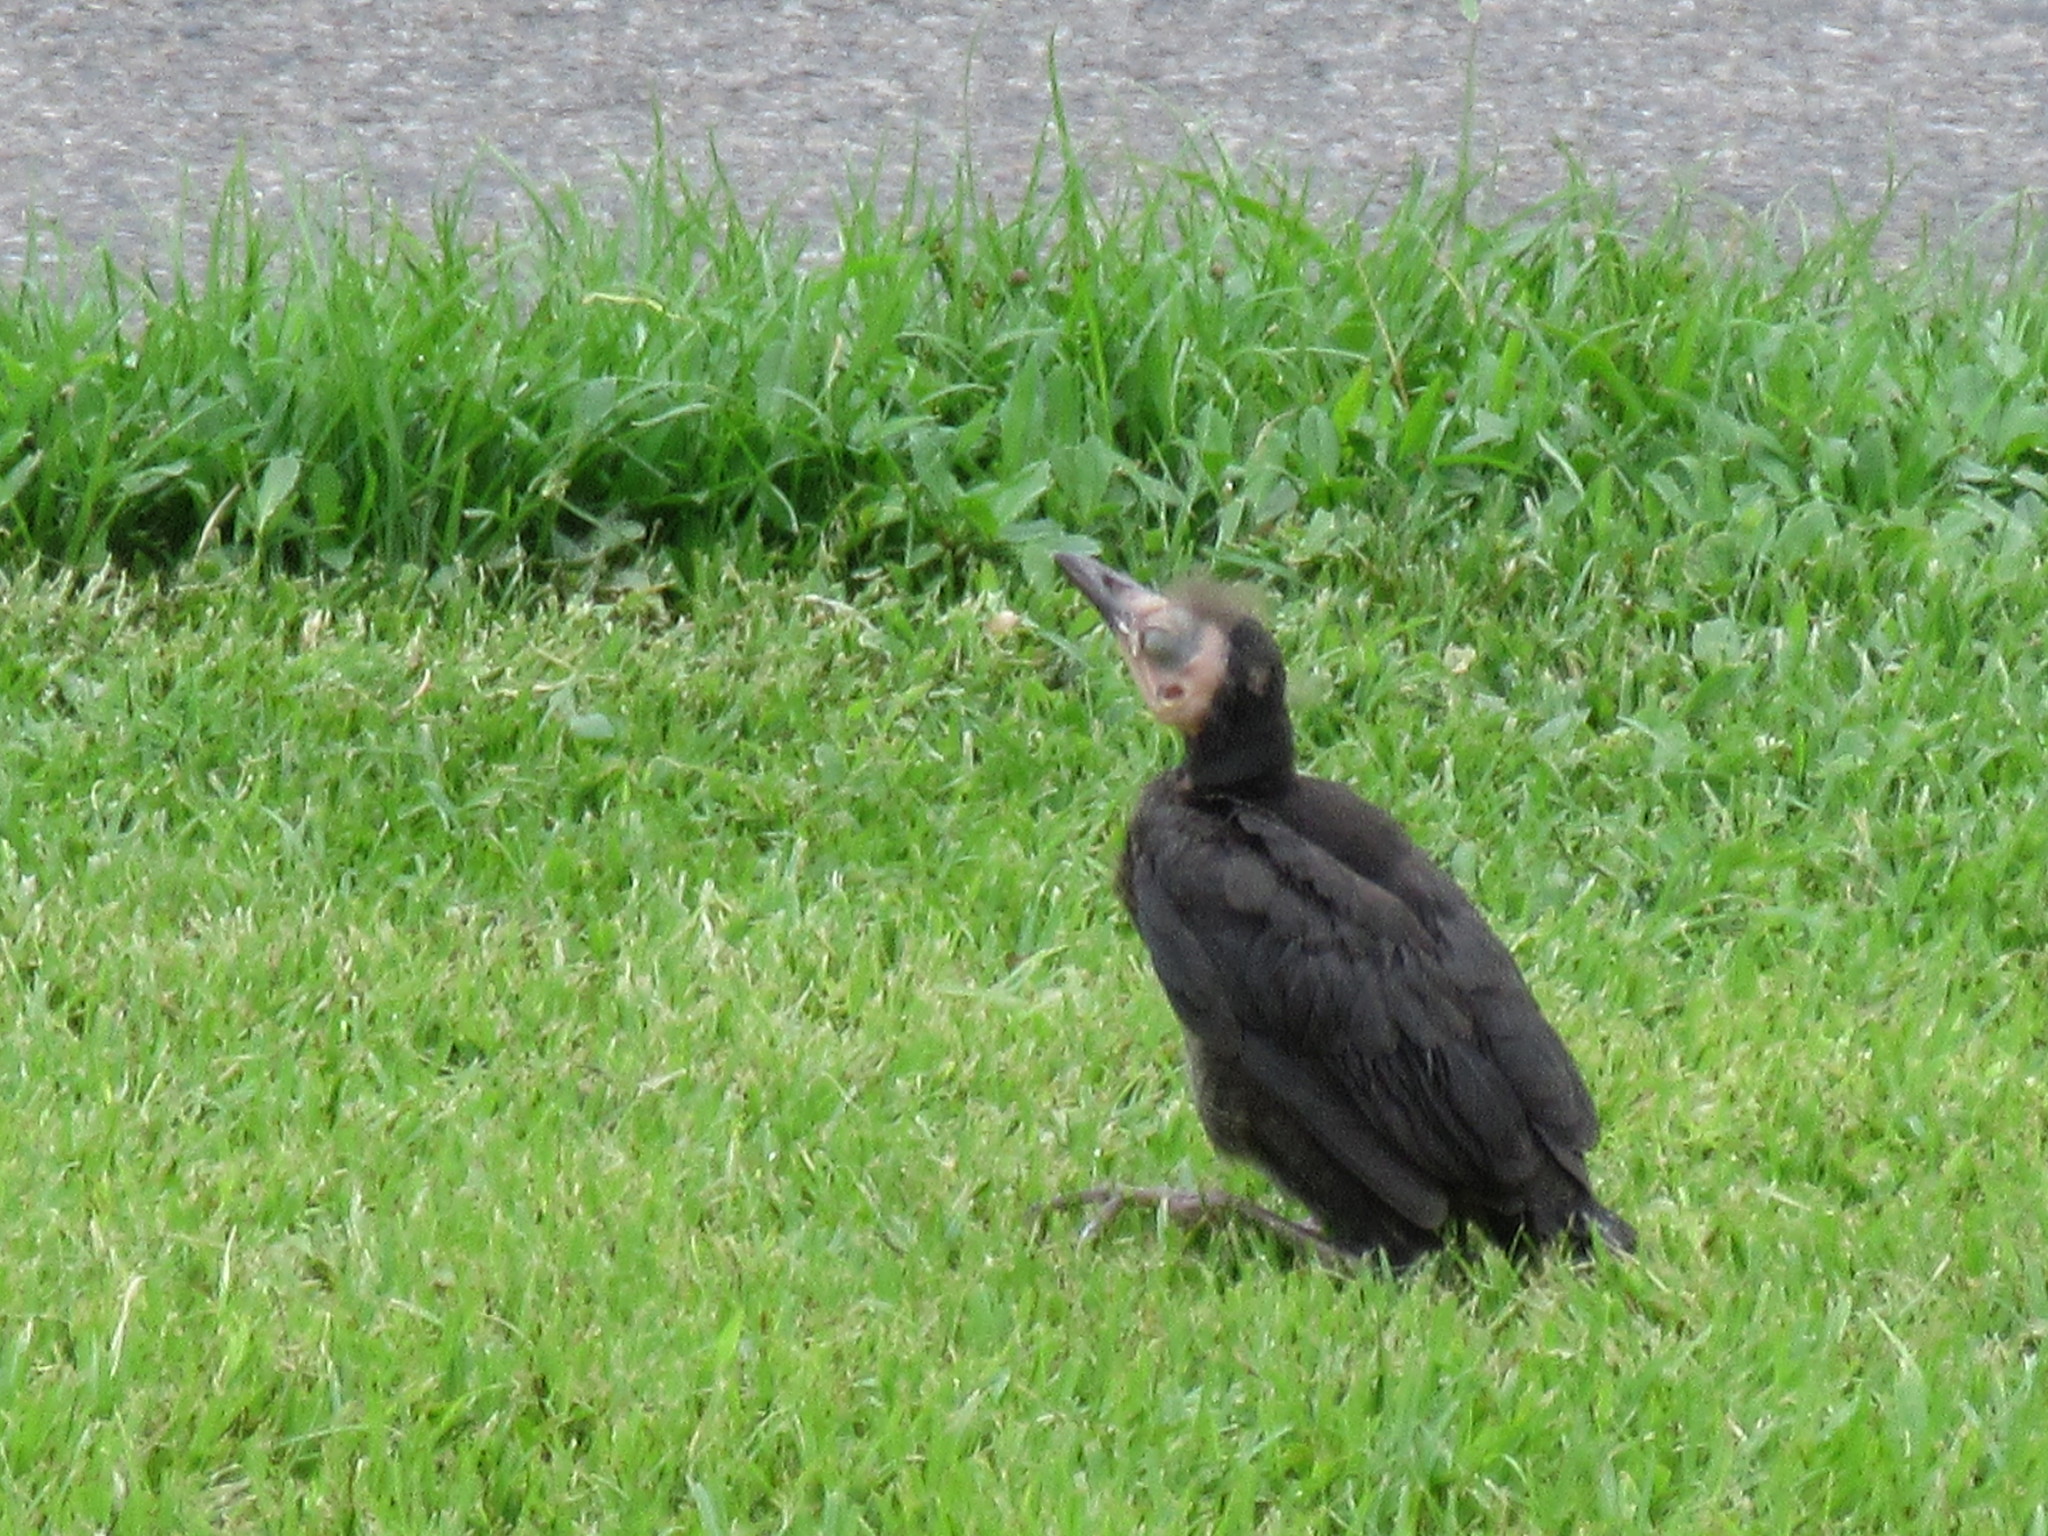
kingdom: Animalia
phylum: Chordata
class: Aves
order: Passeriformes
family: Icteridae
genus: Quiscalus
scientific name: Quiscalus mexicanus
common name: Great-tailed grackle
